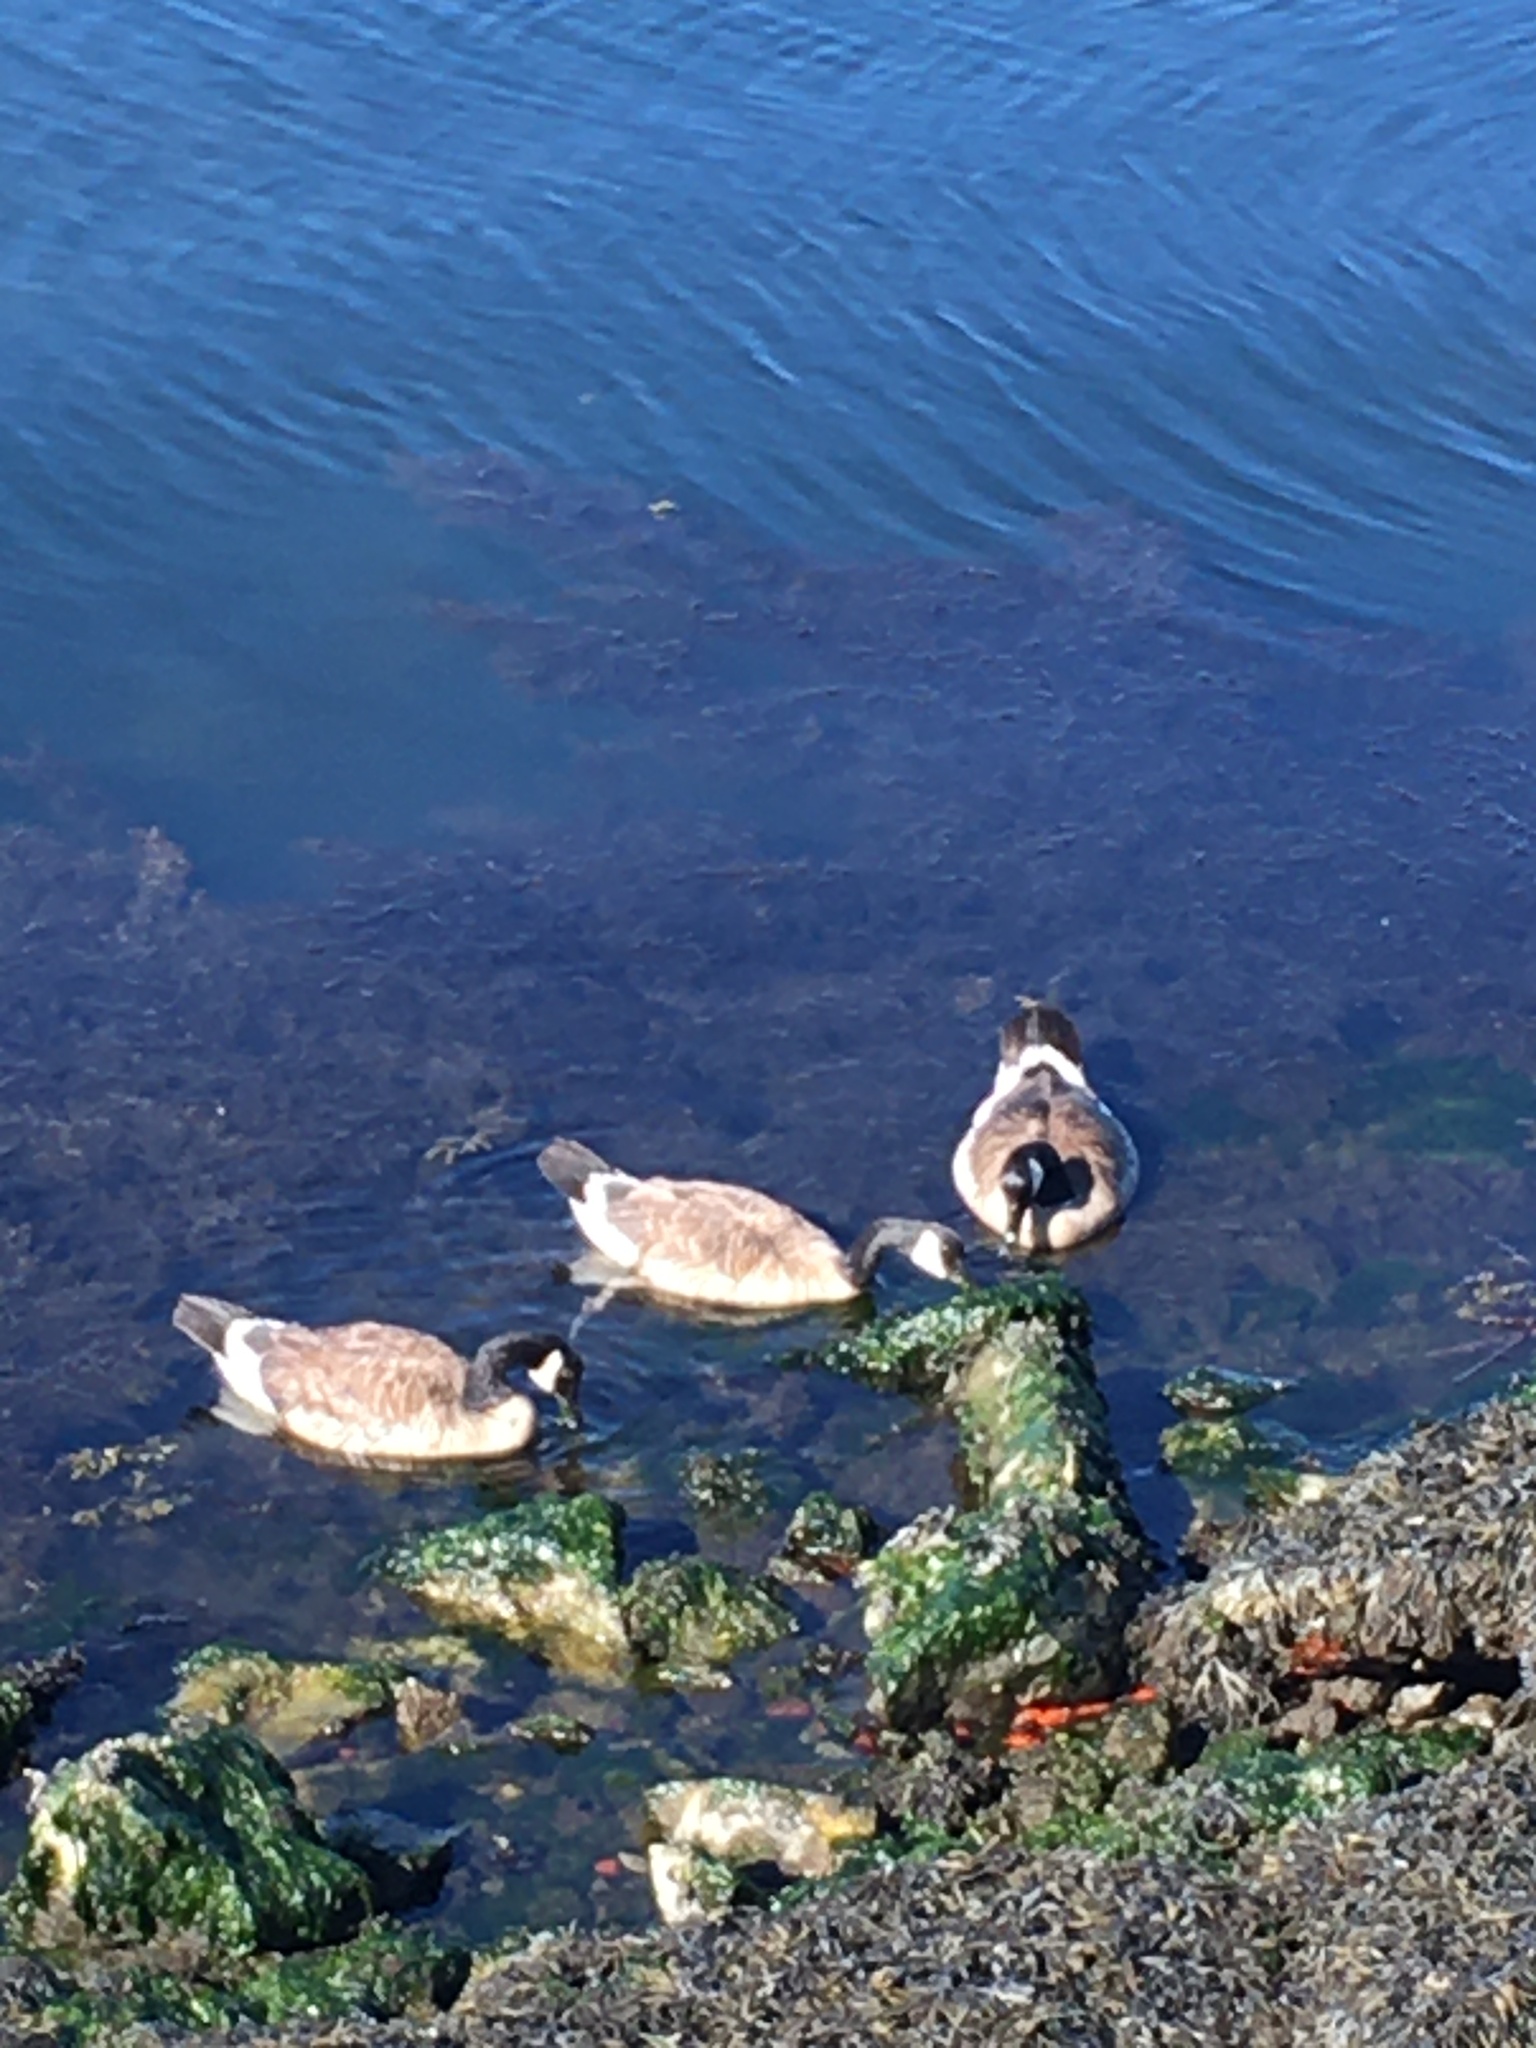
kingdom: Animalia
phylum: Chordata
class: Aves
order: Anseriformes
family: Anatidae
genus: Branta
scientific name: Branta canadensis
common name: Canada goose
